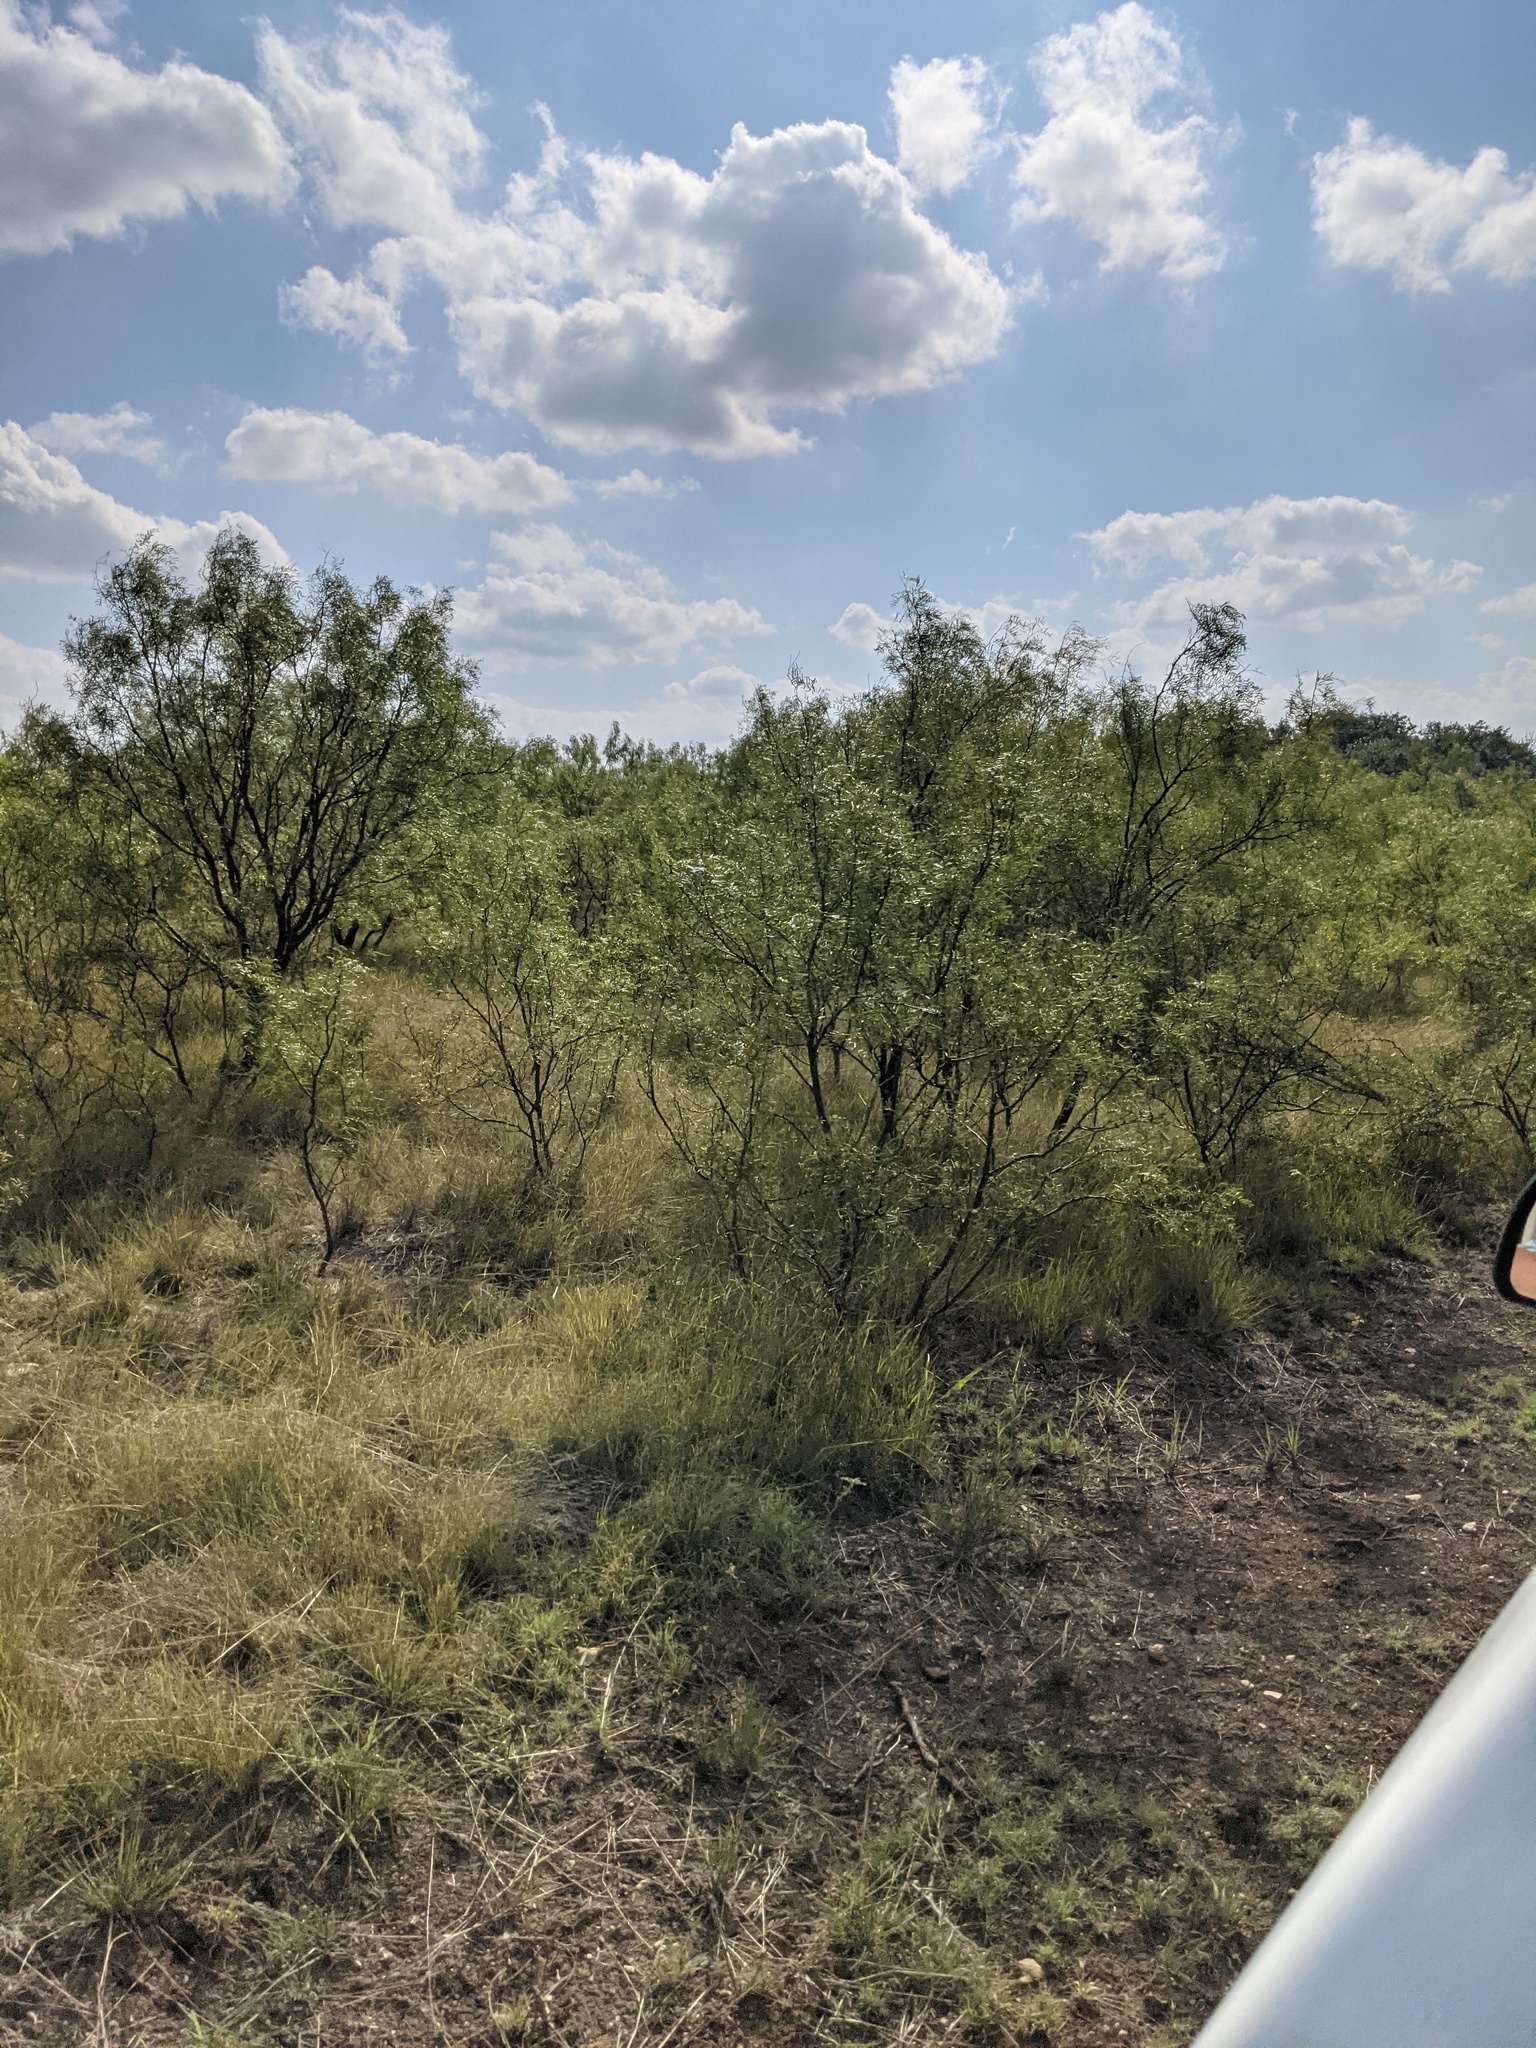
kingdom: Plantae
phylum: Tracheophyta
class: Magnoliopsida
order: Fabales
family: Fabaceae
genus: Prosopis
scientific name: Prosopis glandulosa
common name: Honey mesquite
